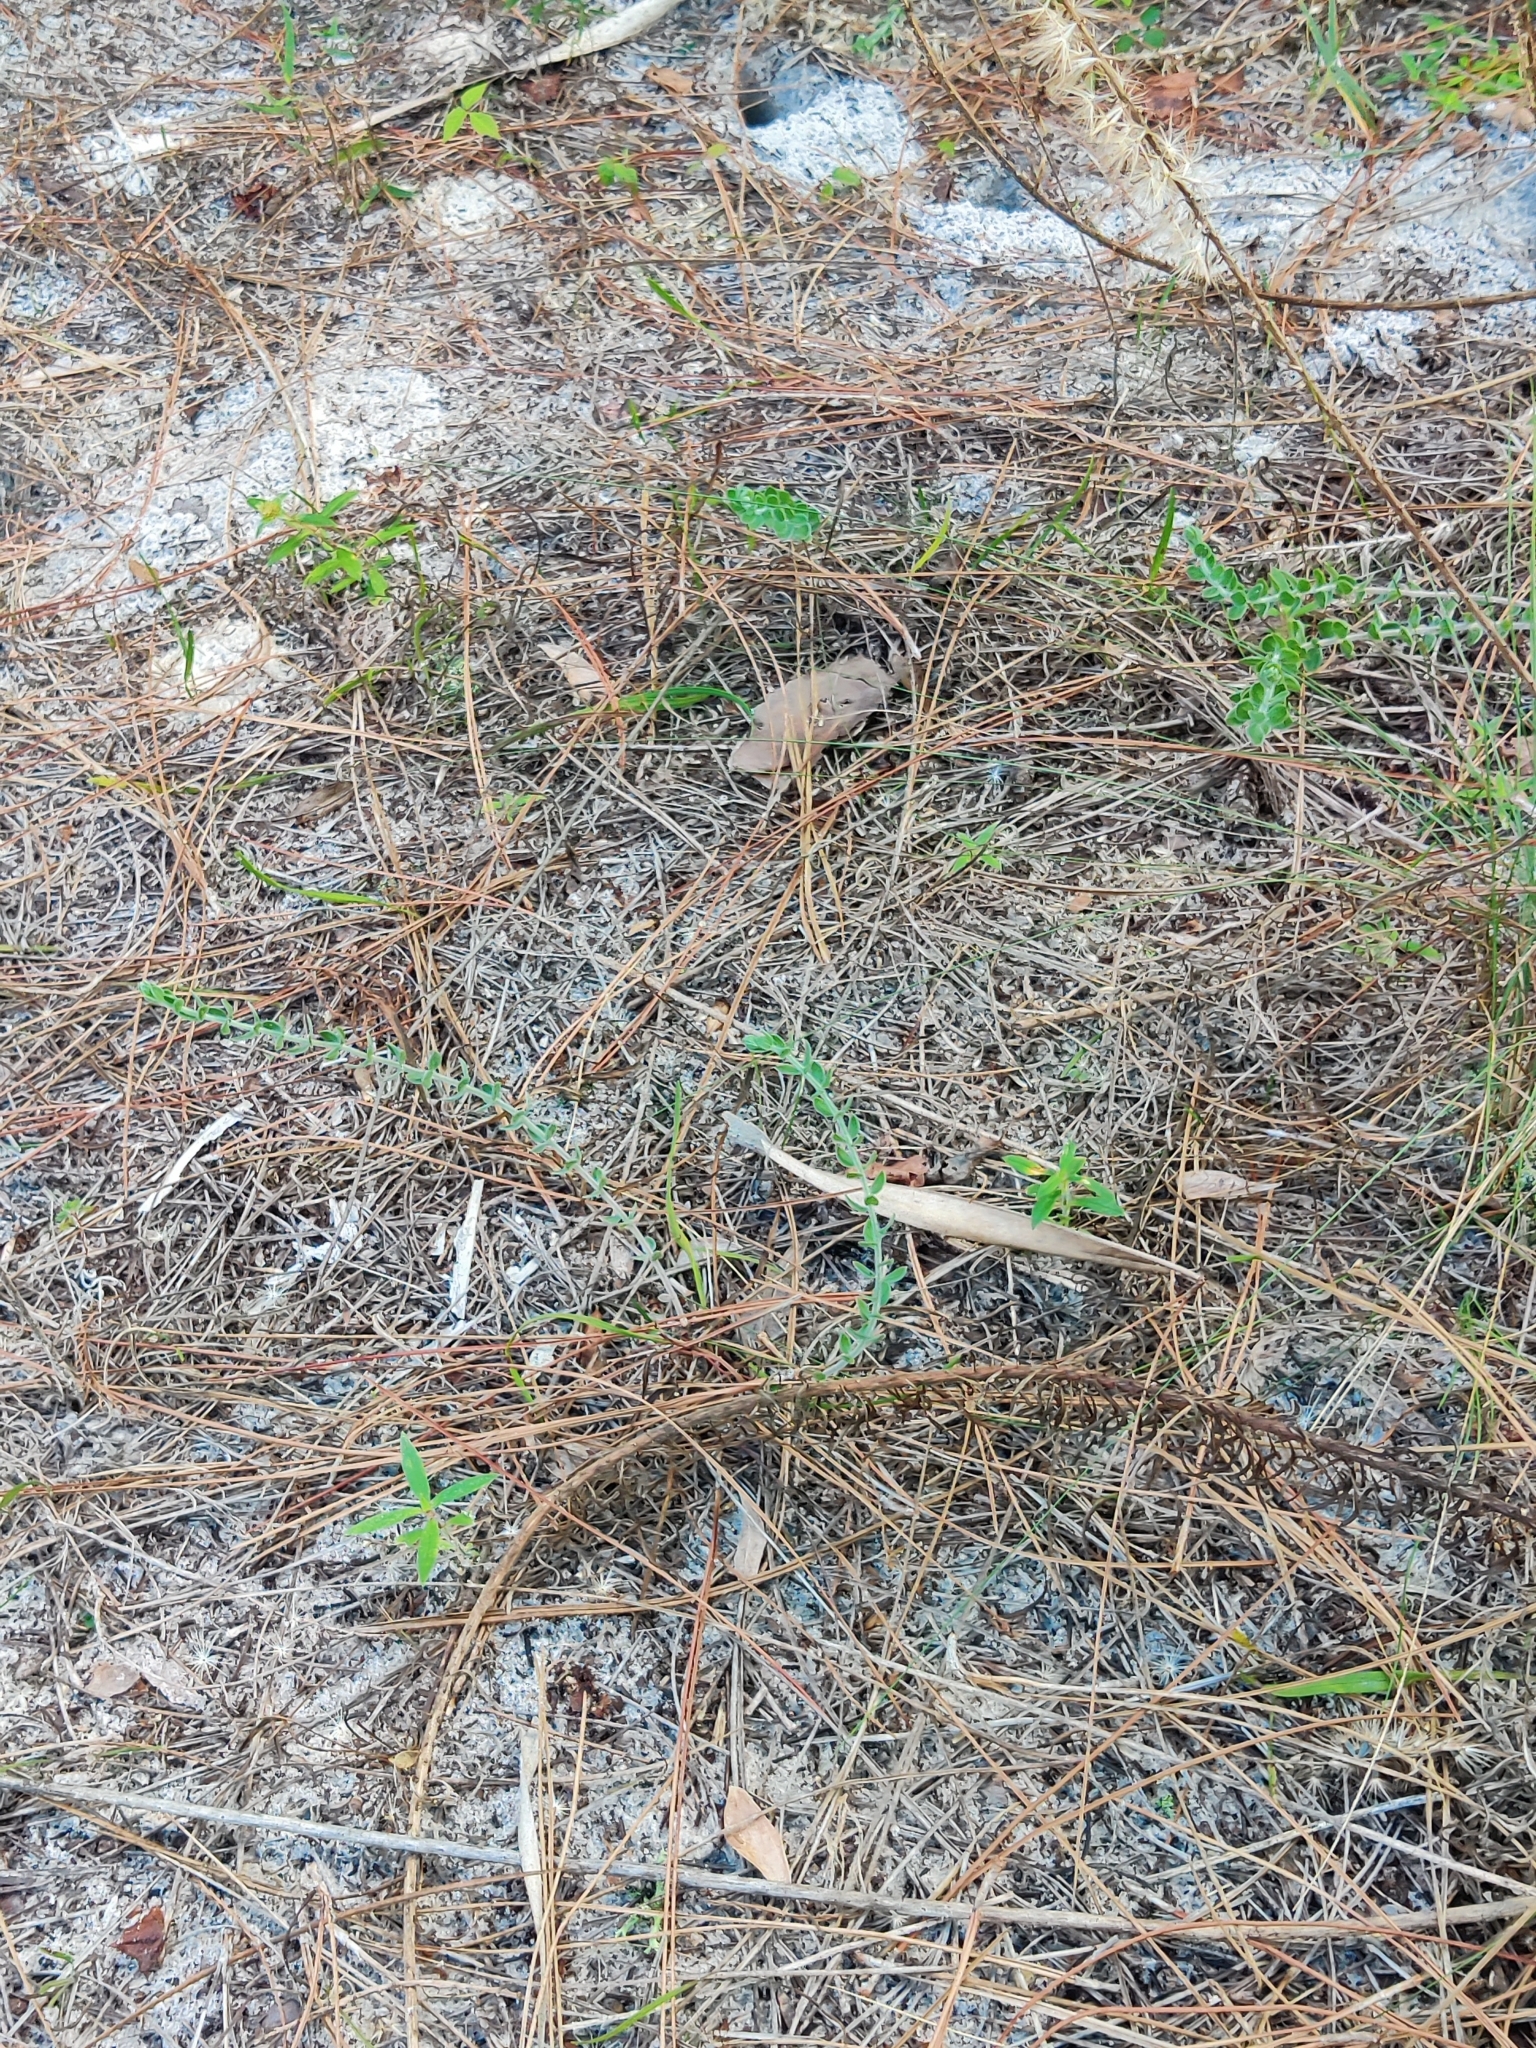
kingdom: Plantae
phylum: Tracheophyta
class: Magnoliopsida
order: Malvales
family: Cistaceae
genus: Lechea
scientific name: Lechea cernua
